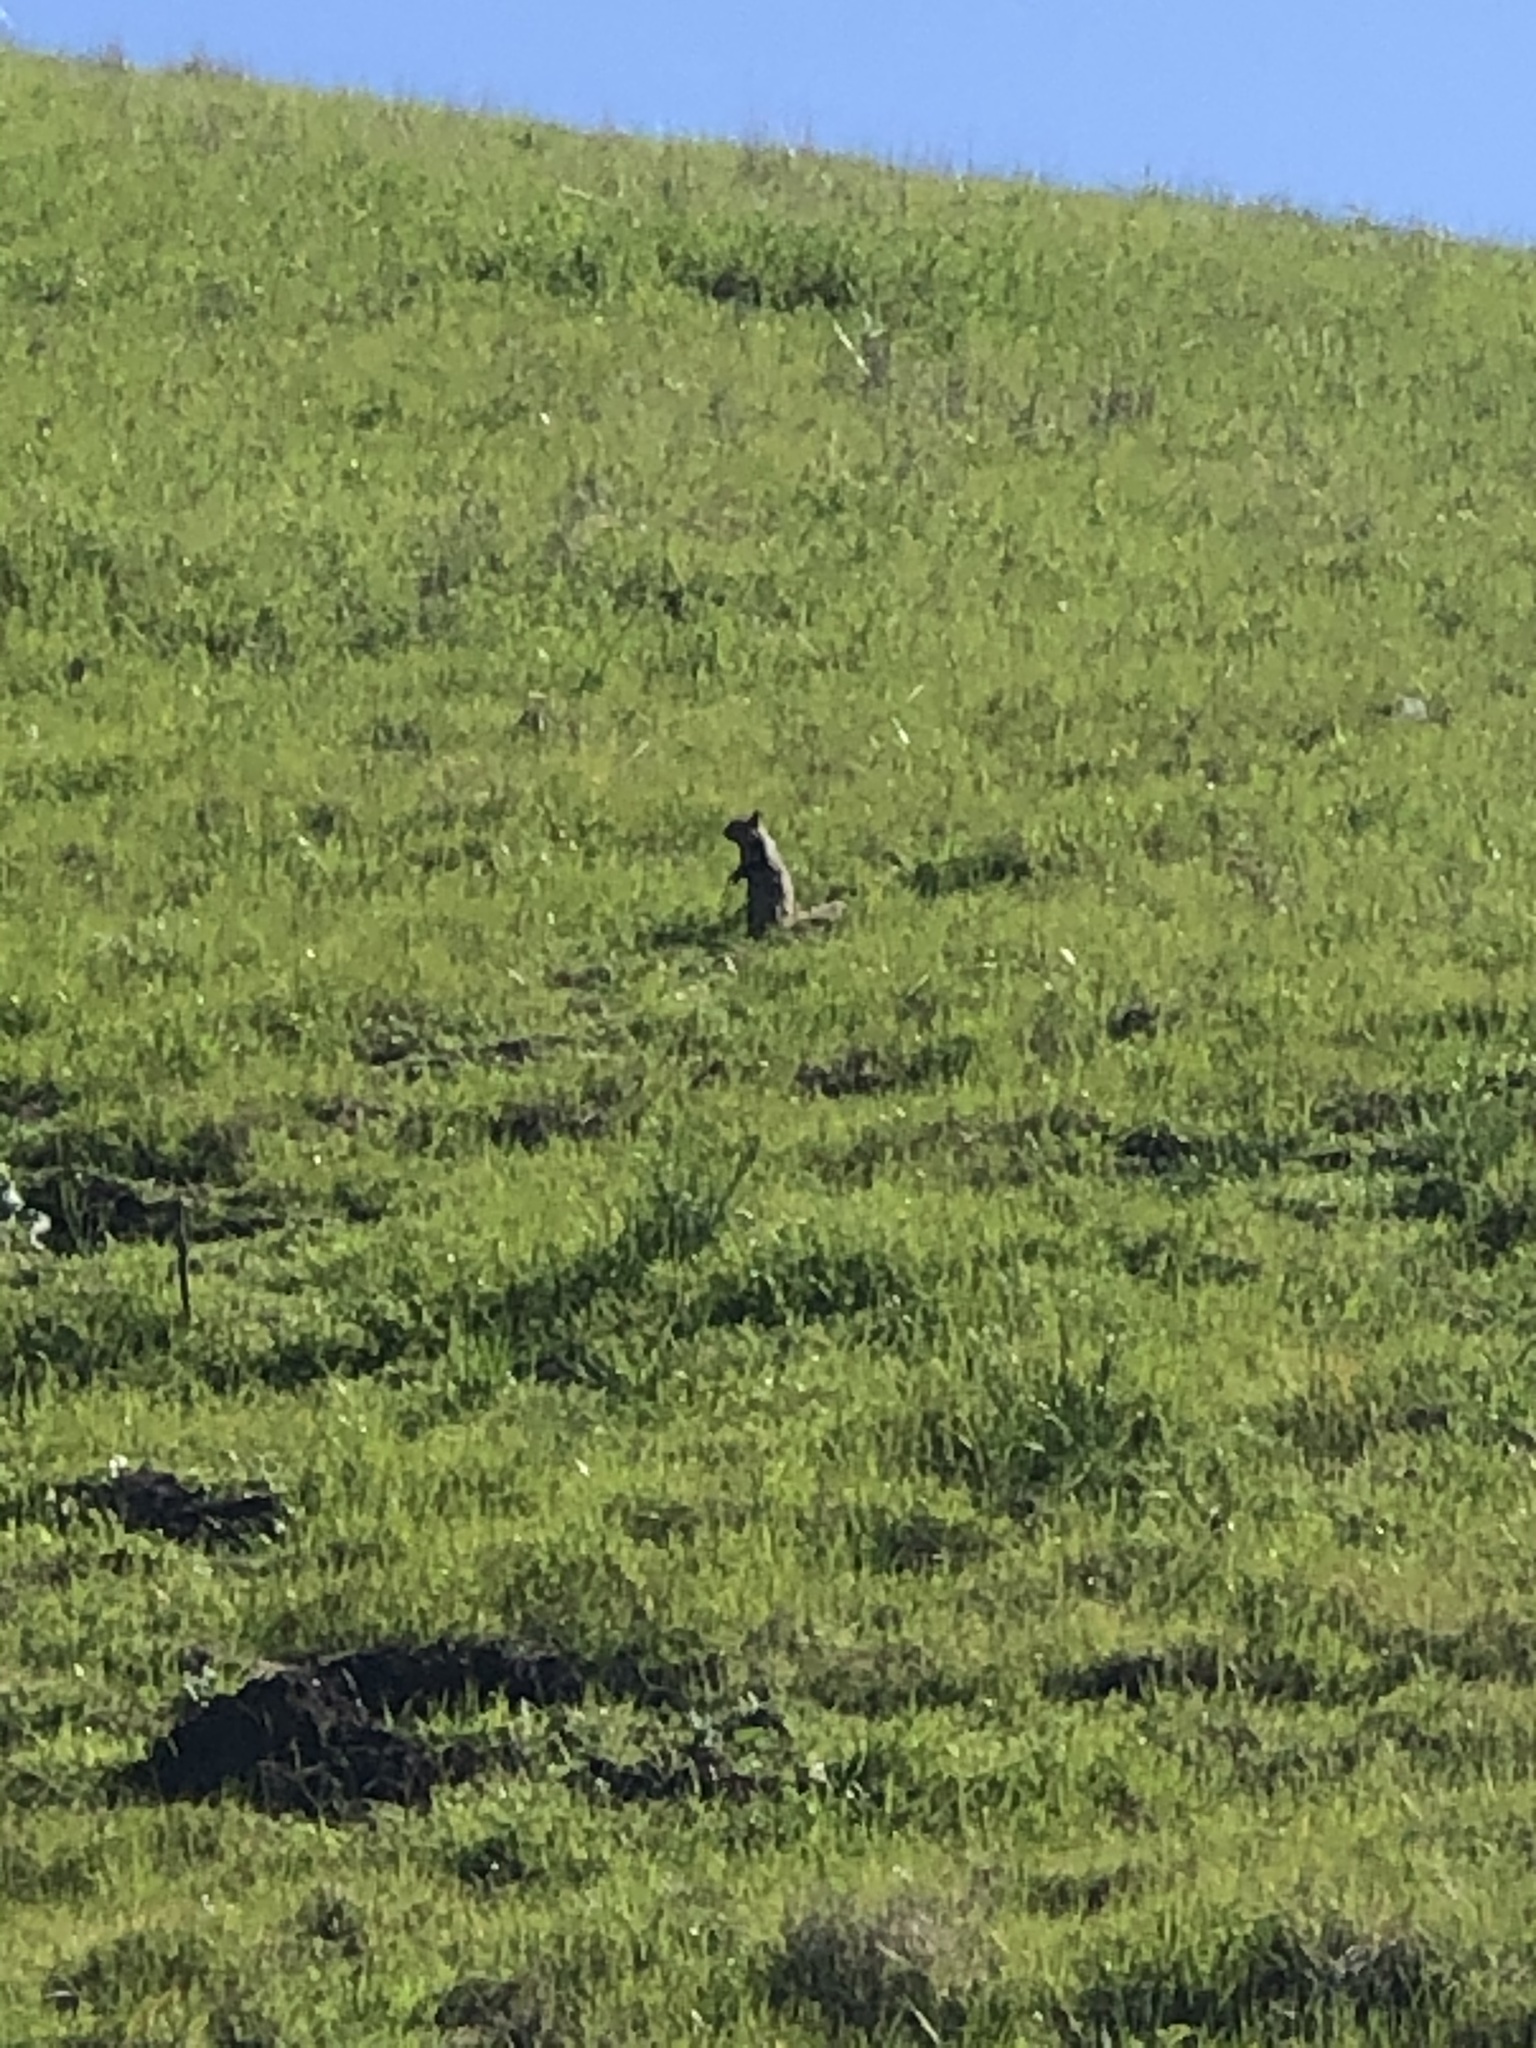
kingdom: Animalia
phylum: Chordata
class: Mammalia
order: Rodentia
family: Sciuridae
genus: Otospermophilus
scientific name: Otospermophilus beecheyi
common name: California ground squirrel
